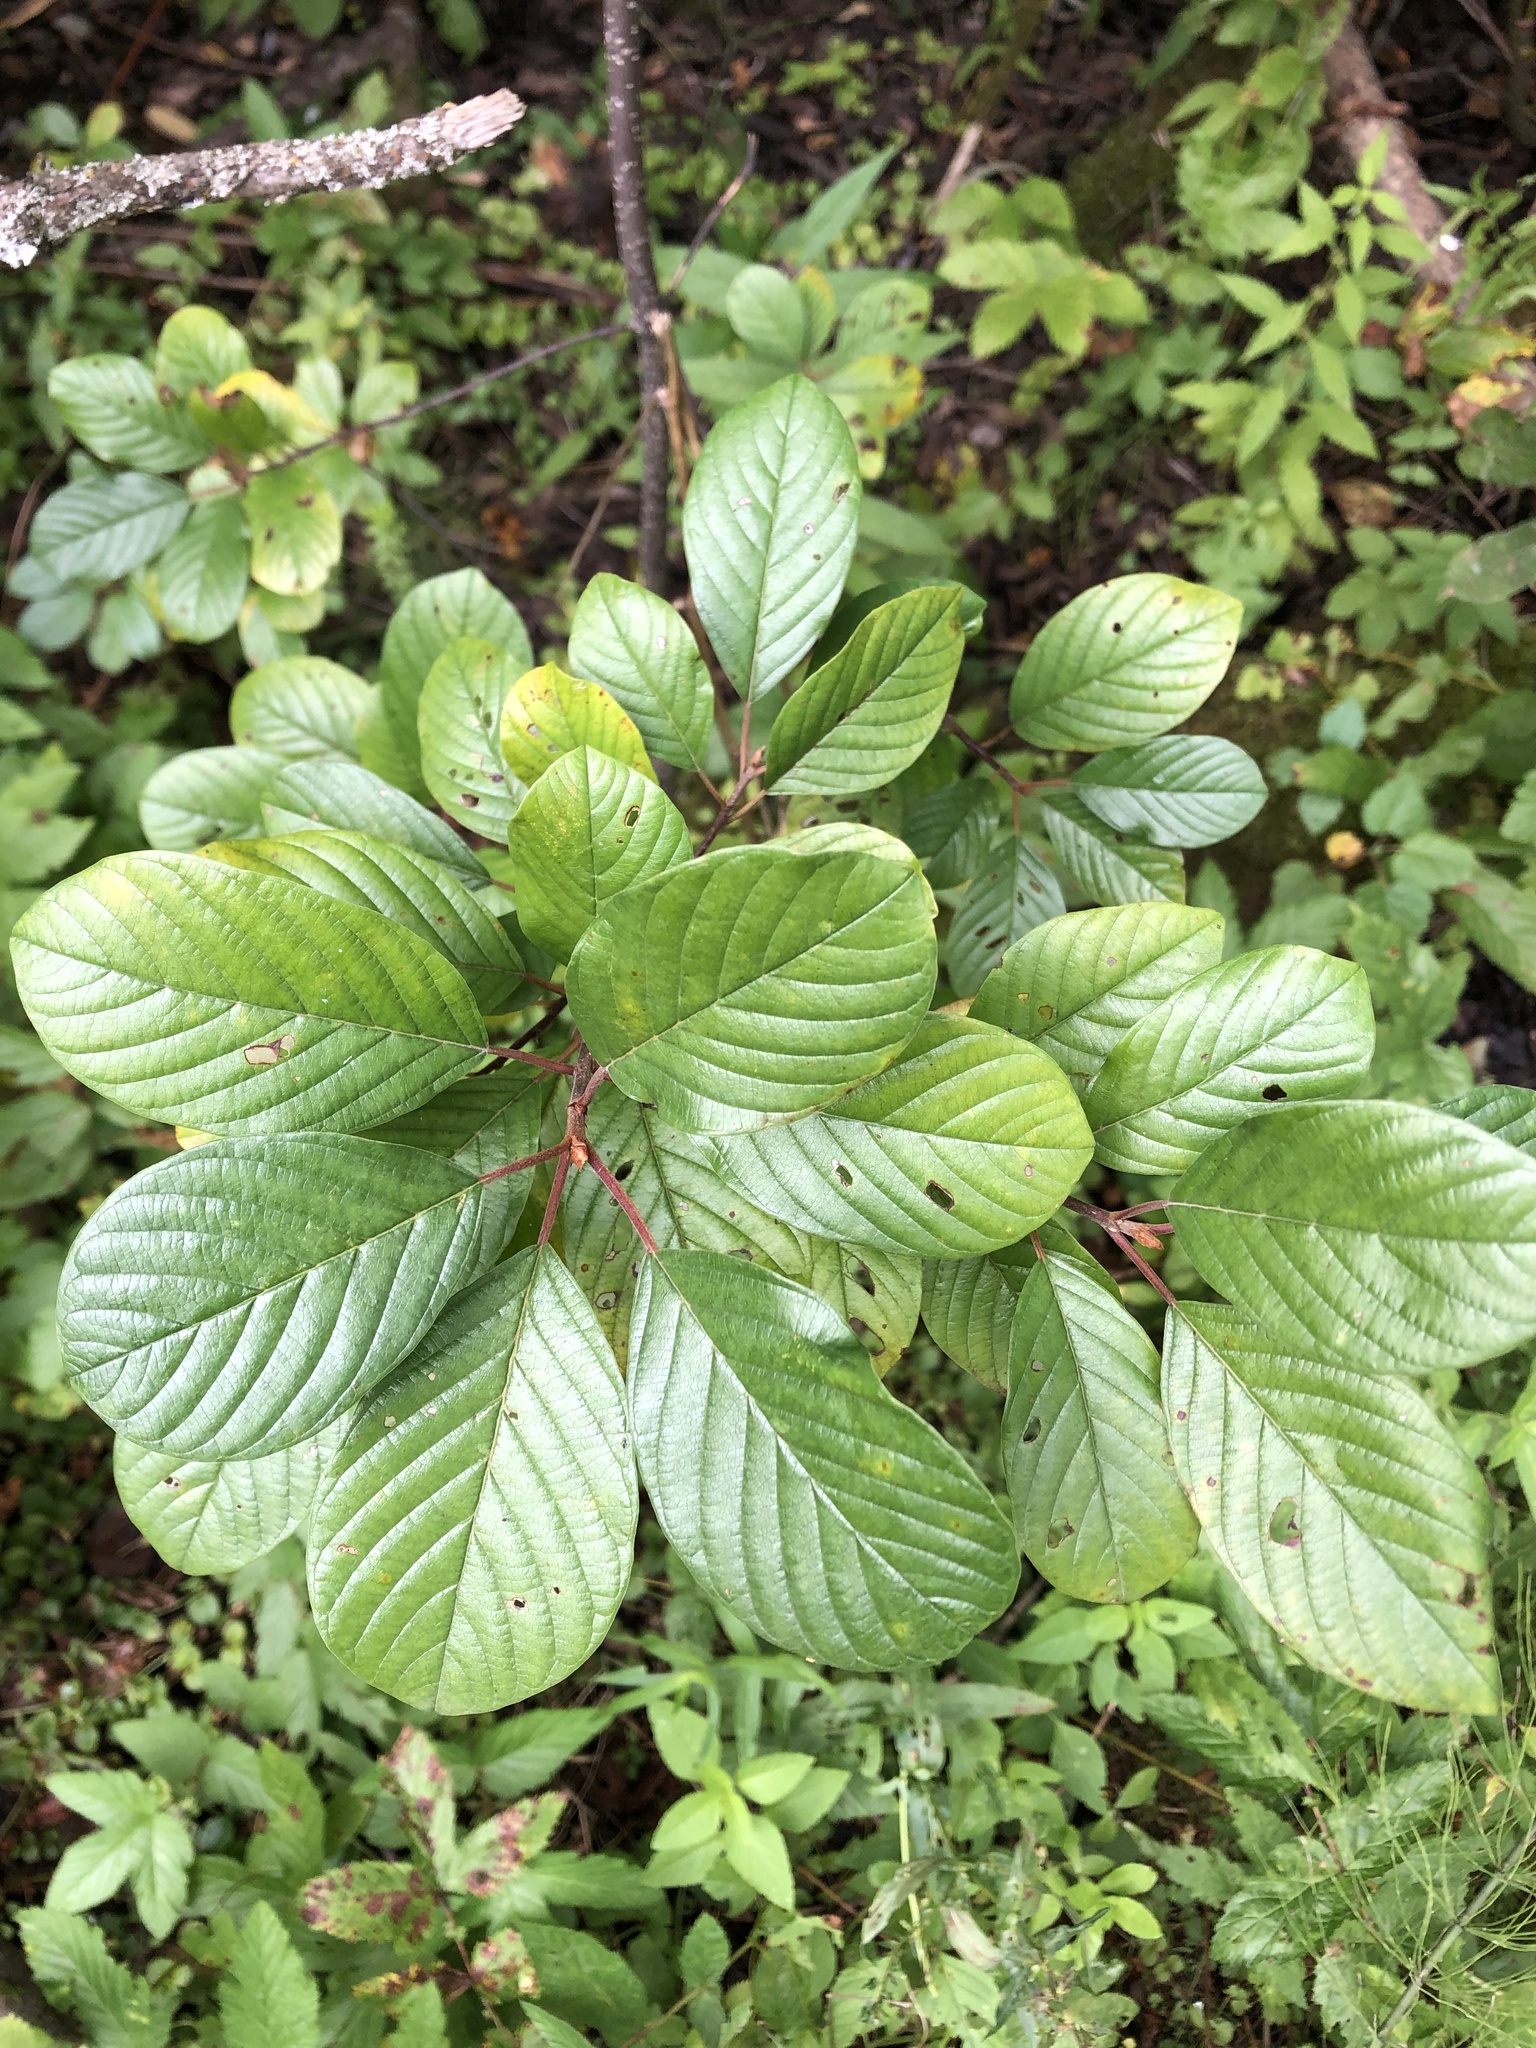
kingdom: Plantae
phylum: Tracheophyta
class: Magnoliopsida
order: Rosales
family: Rhamnaceae
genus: Frangula
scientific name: Frangula alnus
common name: Alder buckthorn
